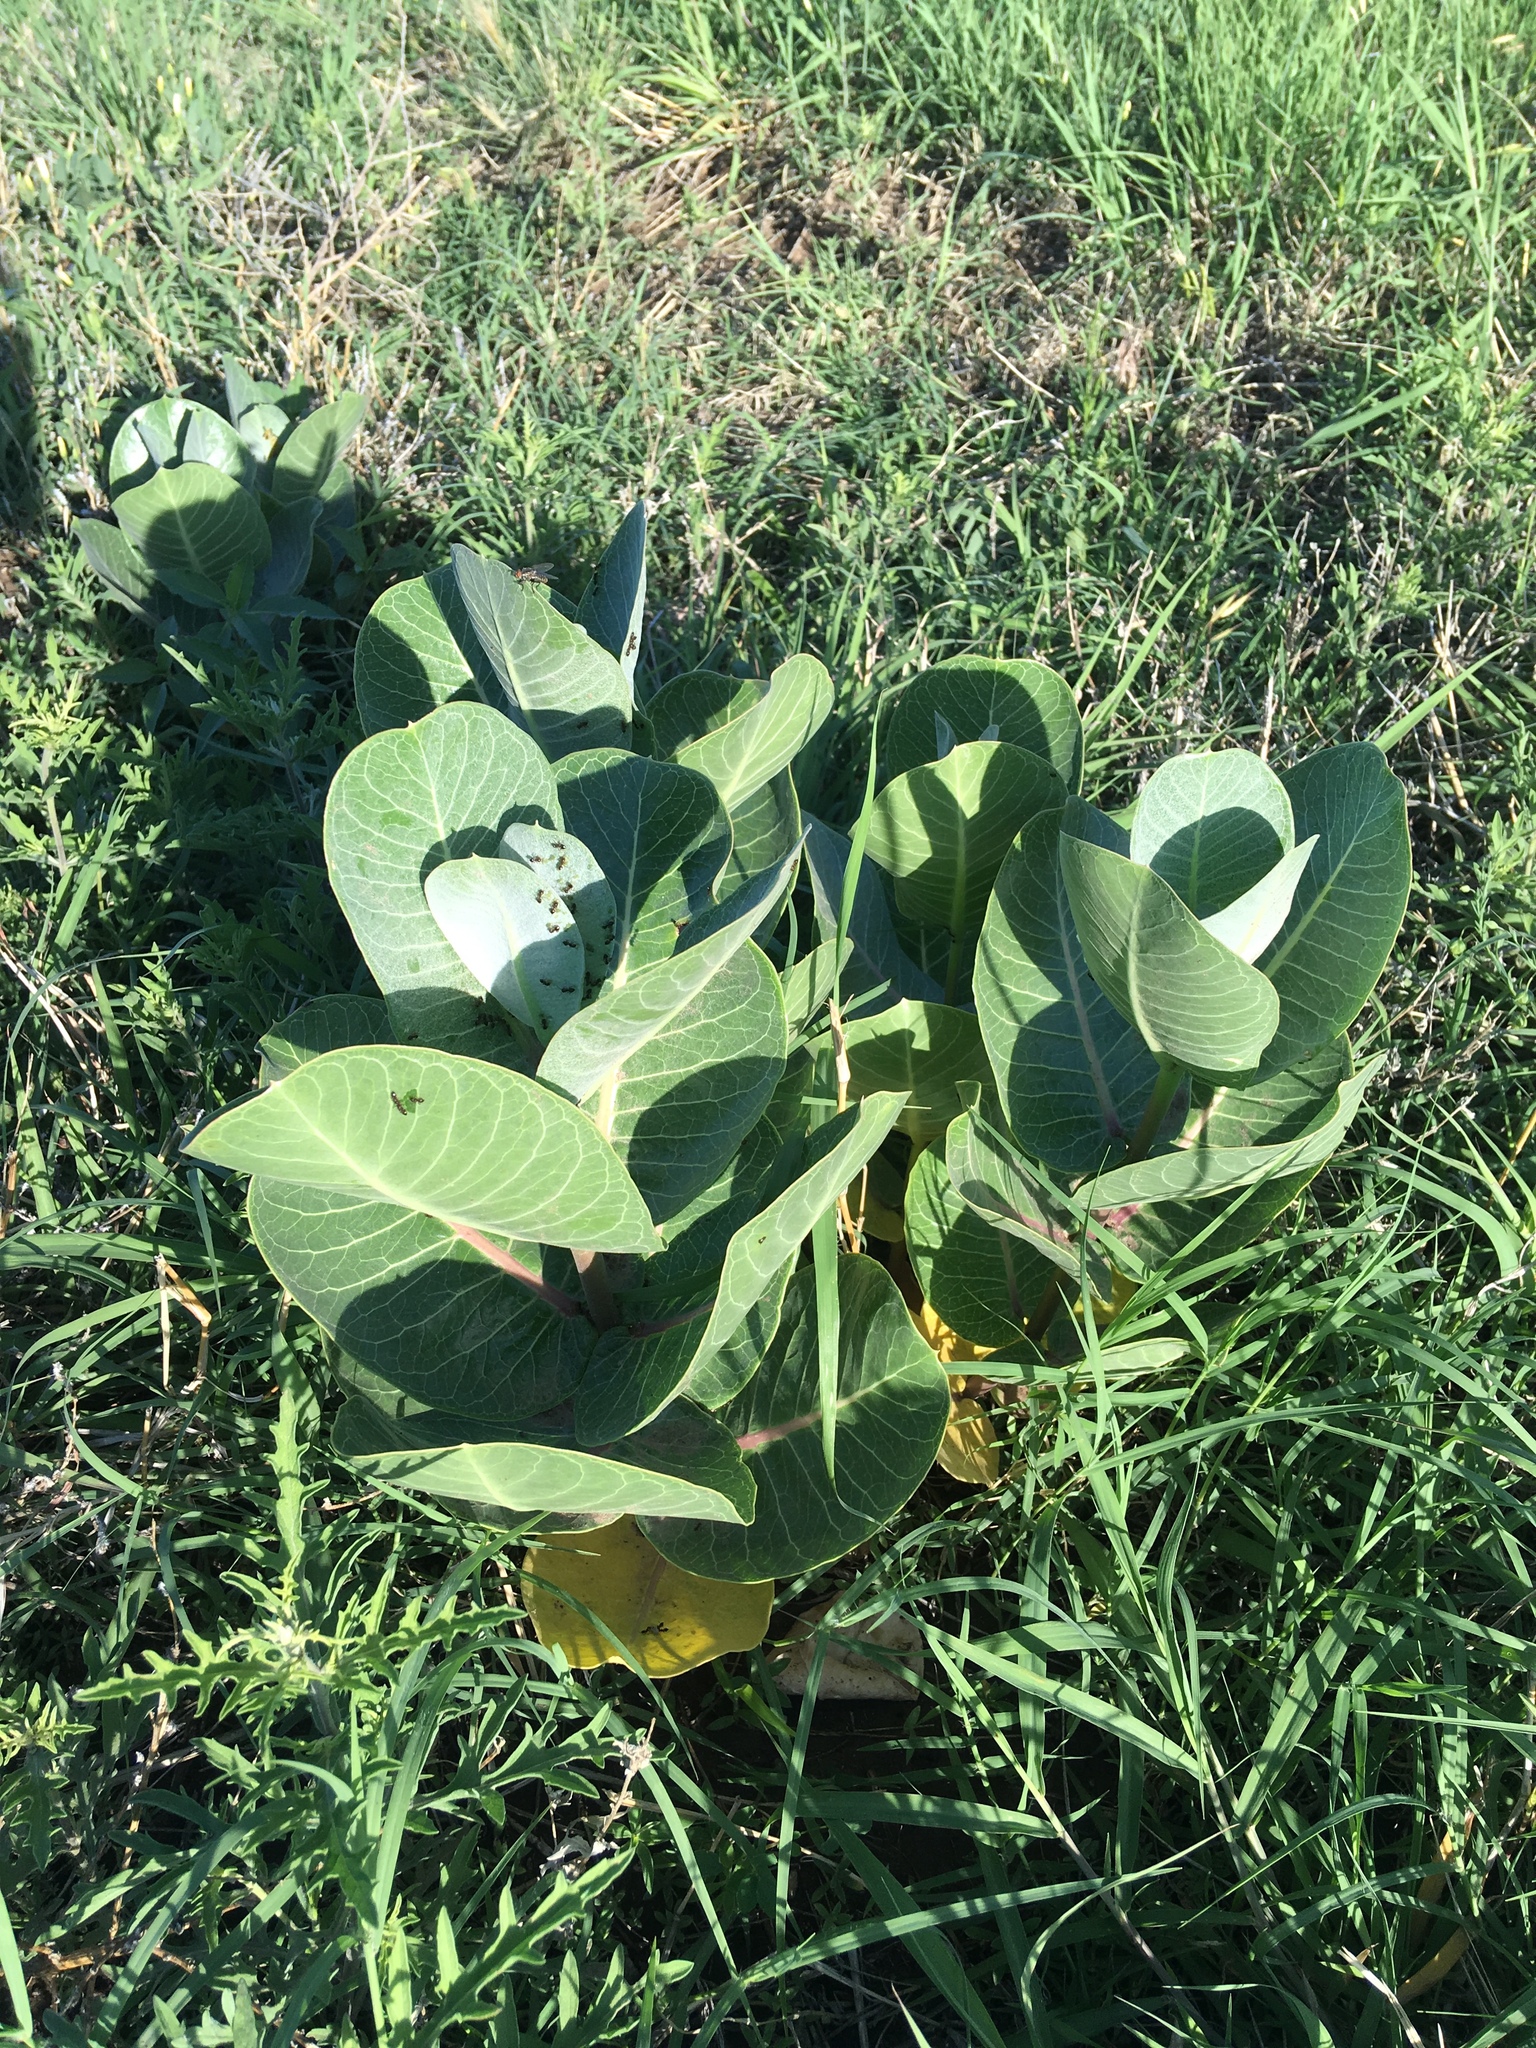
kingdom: Plantae
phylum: Tracheophyta
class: Magnoliopsida
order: Gentianales
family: Apocynaceae
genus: Asclepias
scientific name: Asclepias latifolia
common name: Broadleaf milkweed
